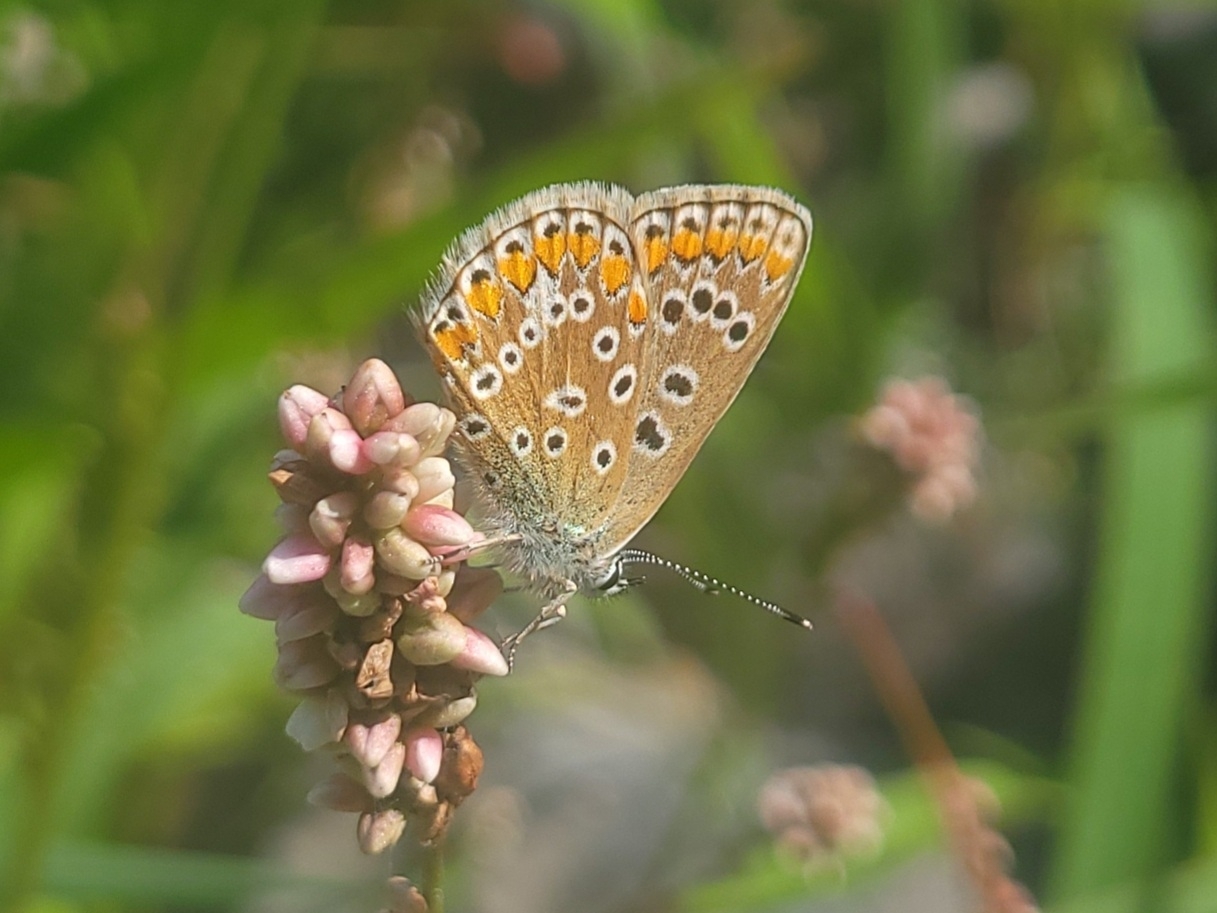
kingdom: Animalia
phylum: Arthropoda
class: Insecta
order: Lepidoptera
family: Lycaenidae
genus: Polyommatus
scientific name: Polyommatus icarus
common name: Common blue
